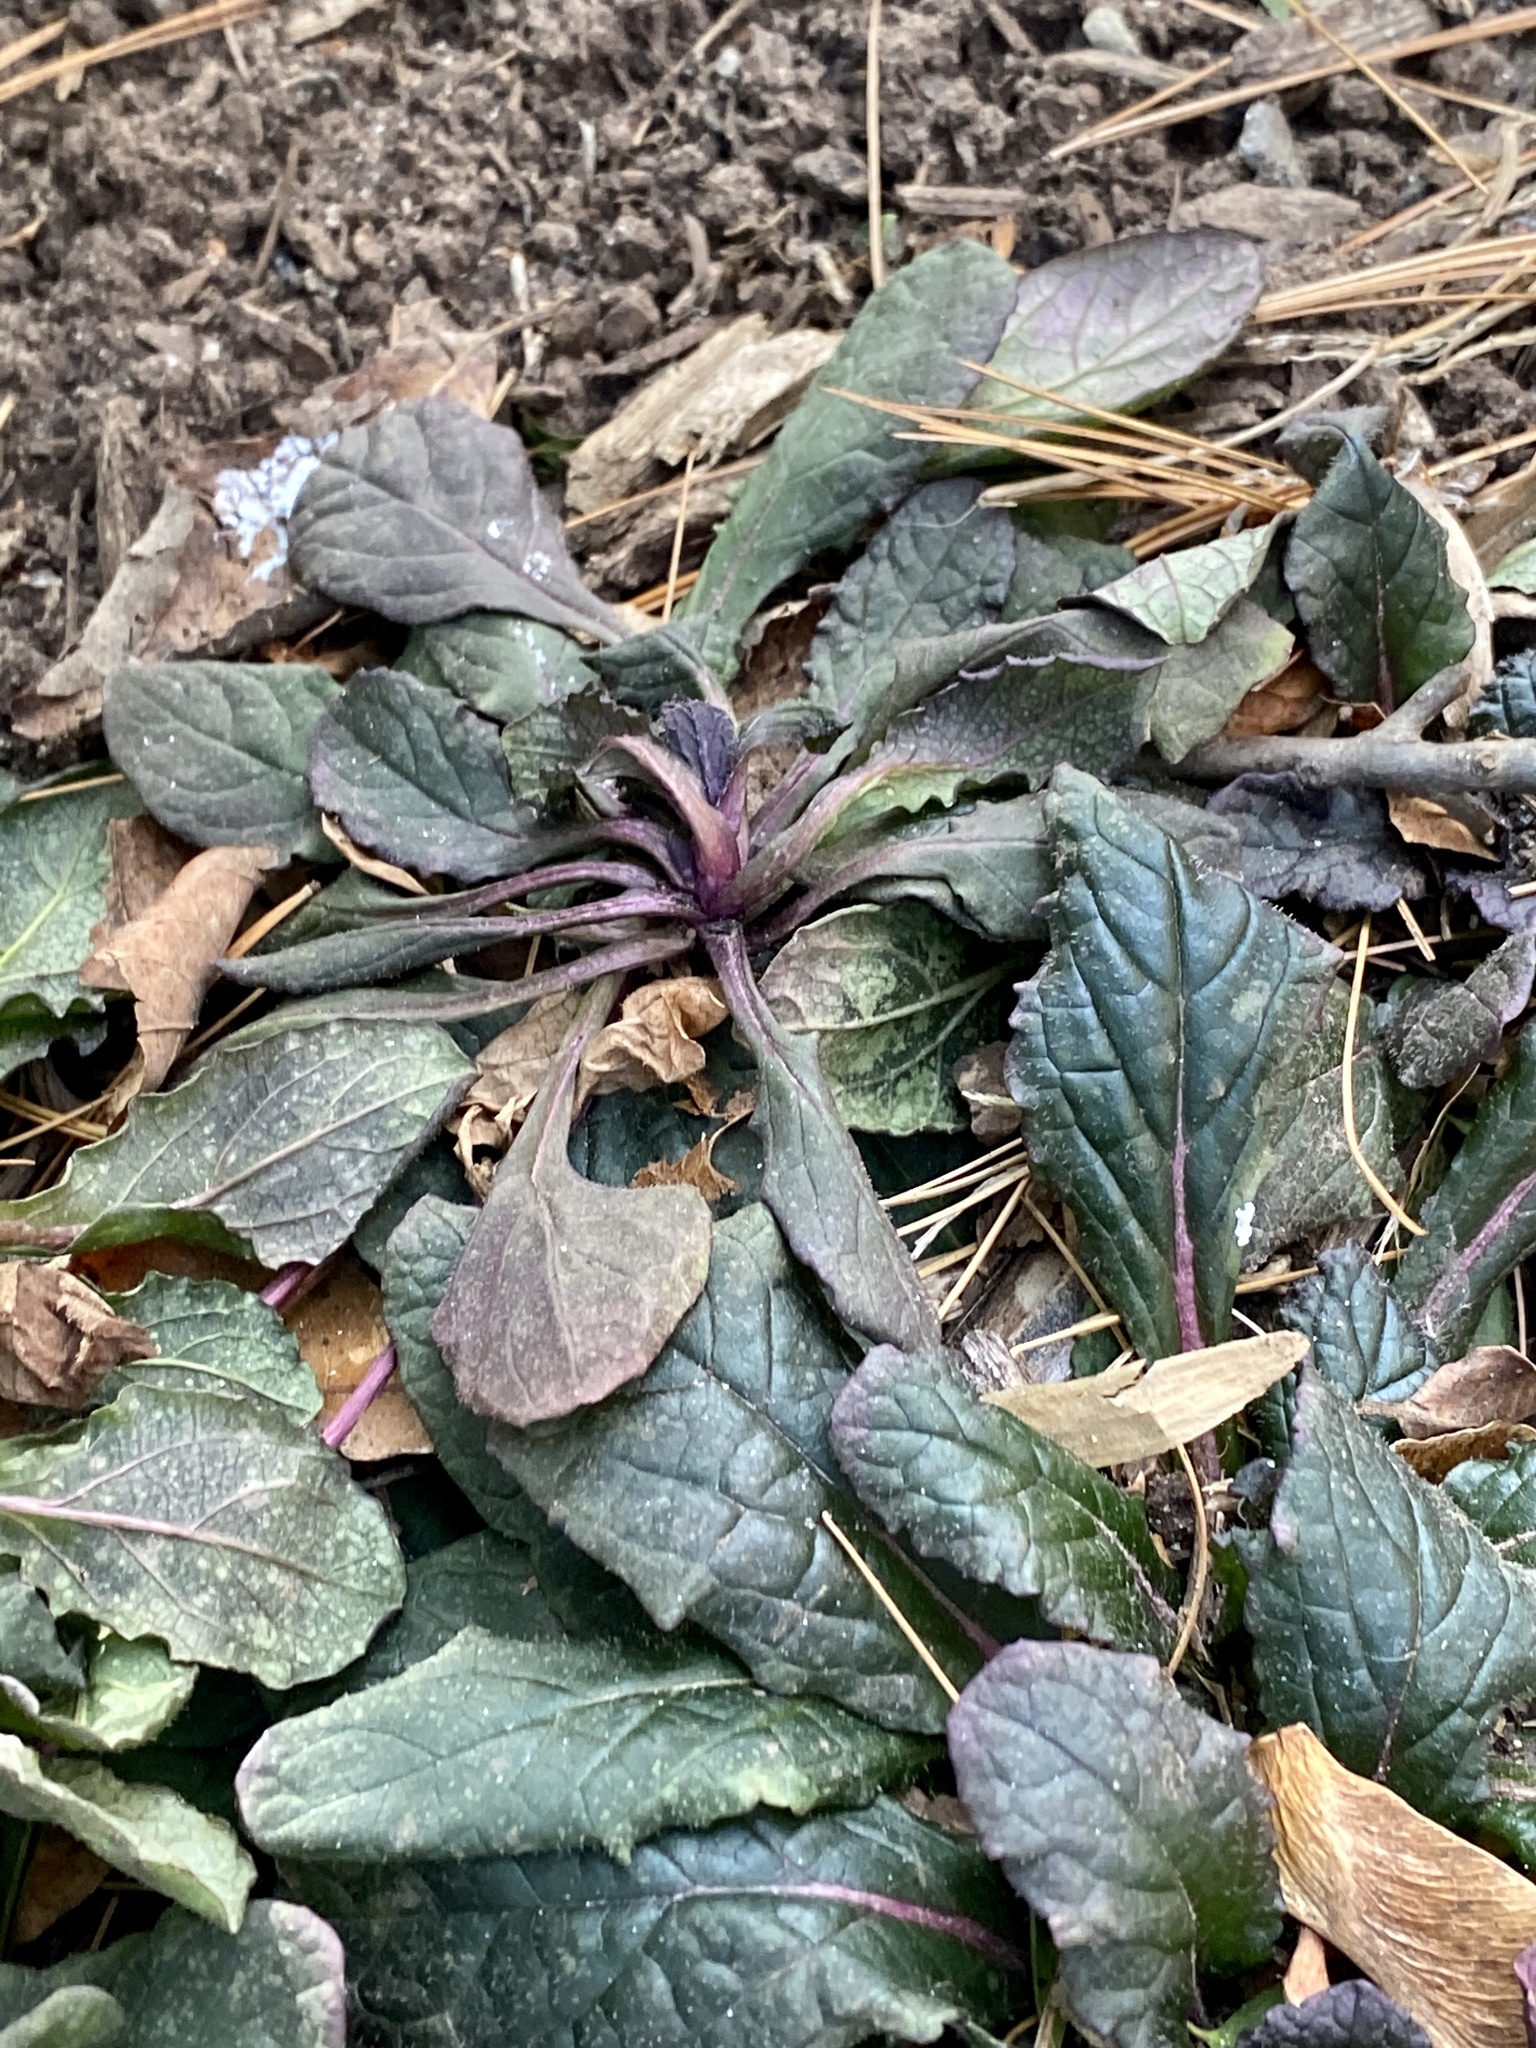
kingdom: Plantae
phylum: Tracheophyta
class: Magnoliopsida
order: Lamiales
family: Lamiaceae
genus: Ajuga
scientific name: Ajuga reptans
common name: Bugle
